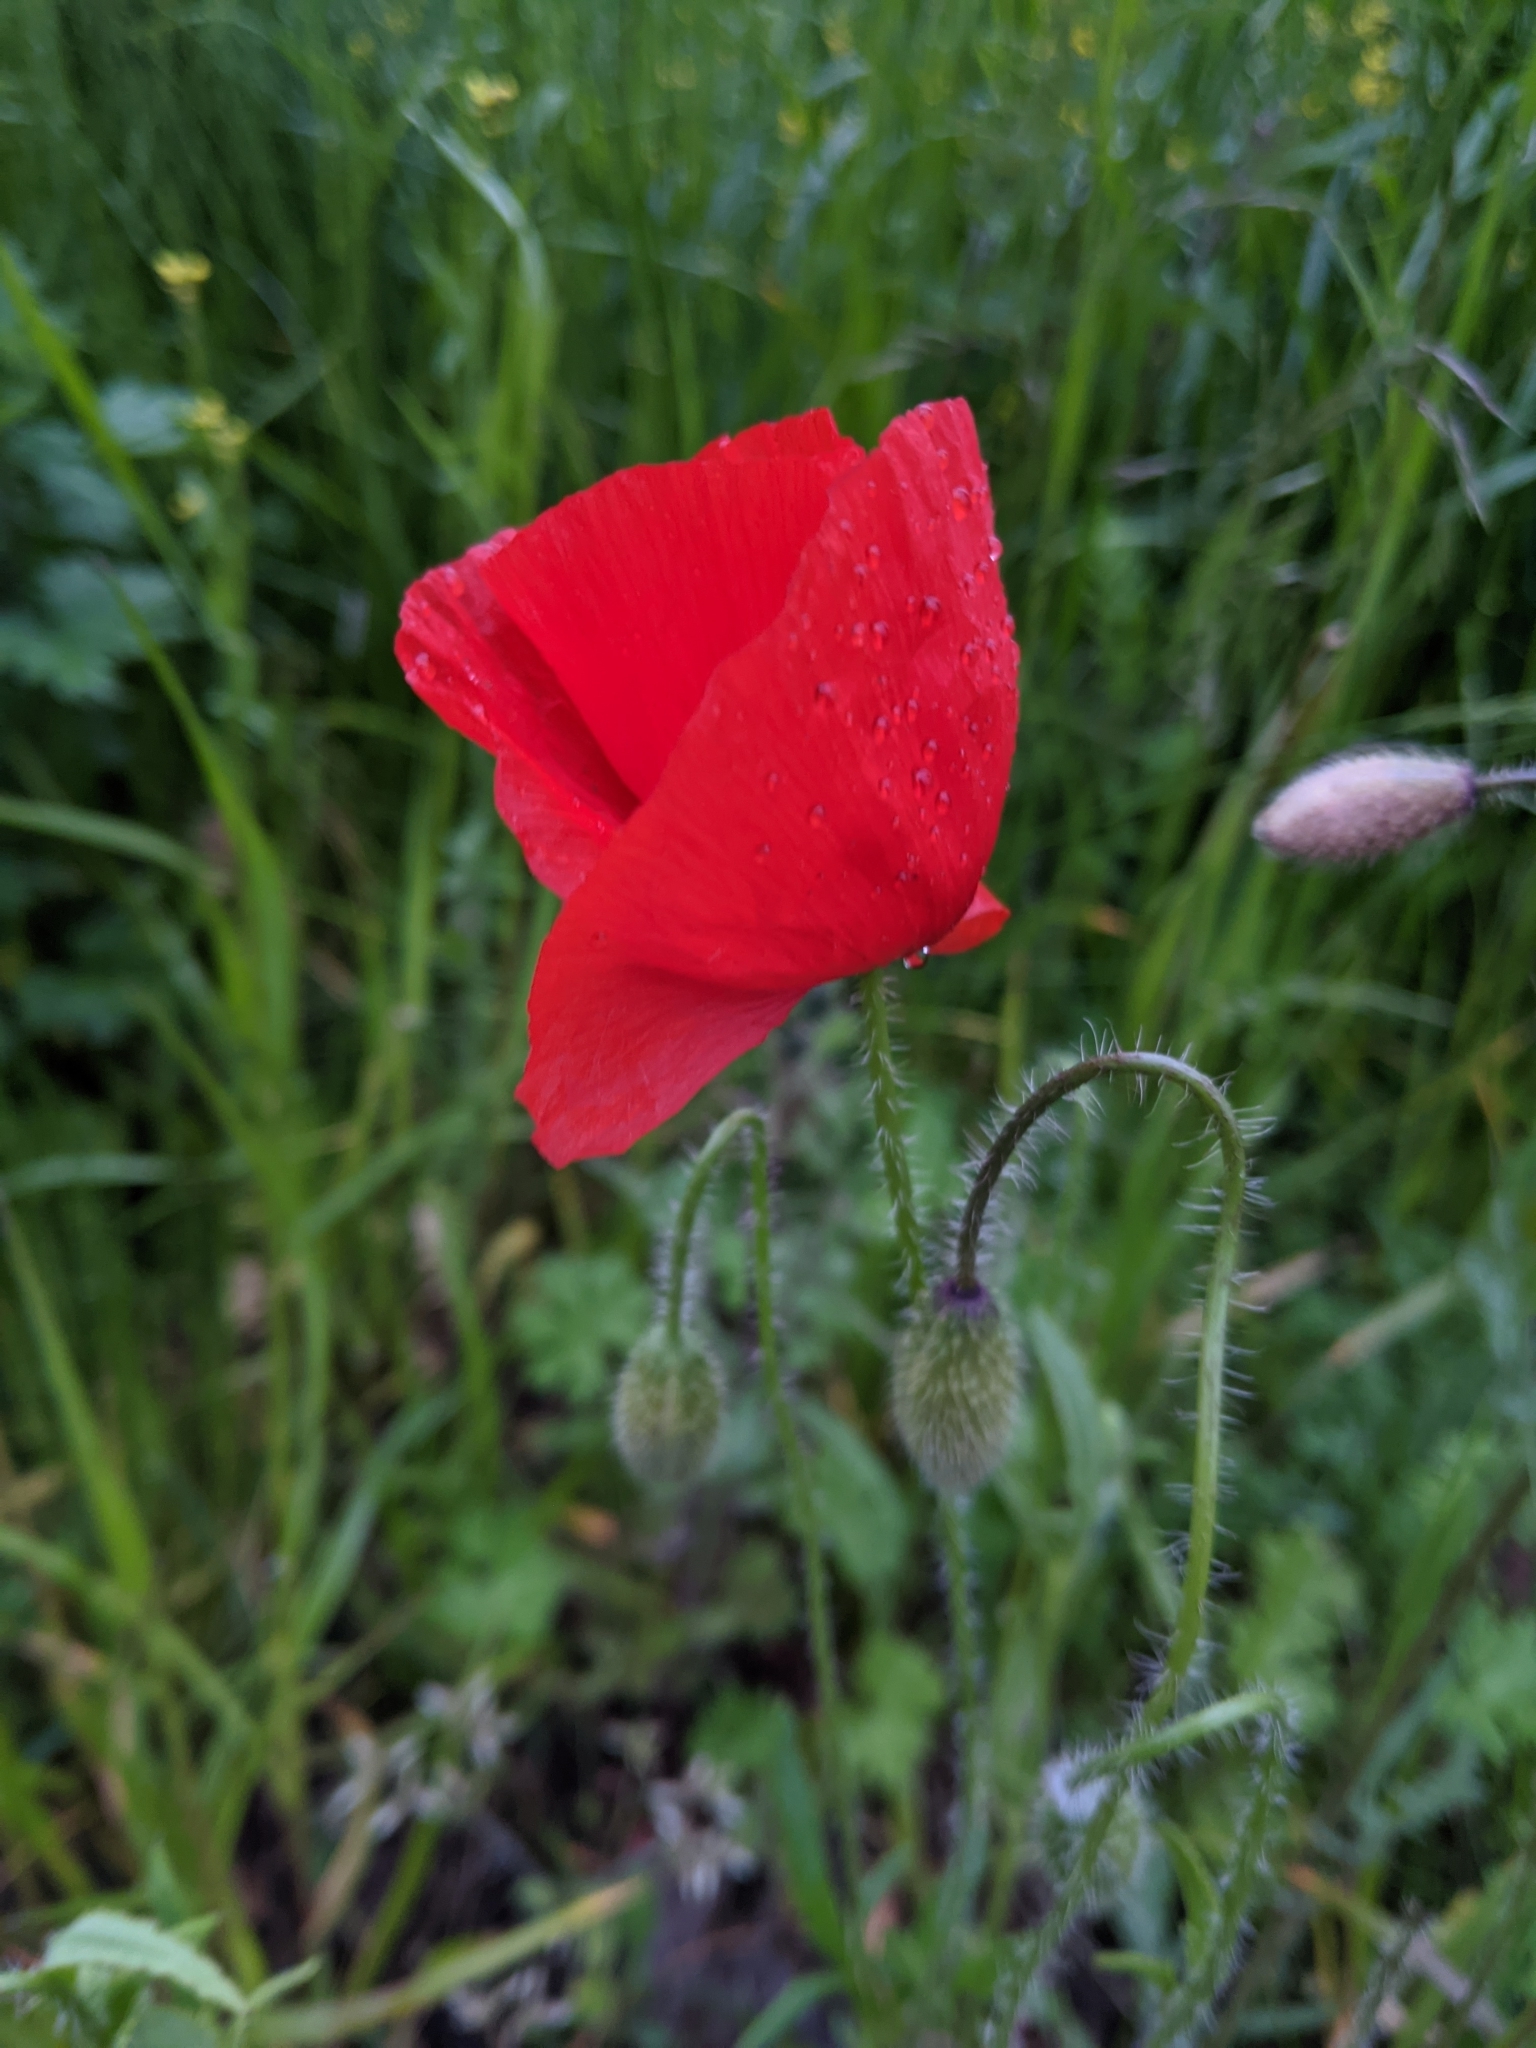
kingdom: Plantae
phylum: Tracheophyta
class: Magnoliopsida
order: Ranunculales
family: Papaveraceae
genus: Papaver
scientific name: Papaver rhoeas
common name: Corn poppy
